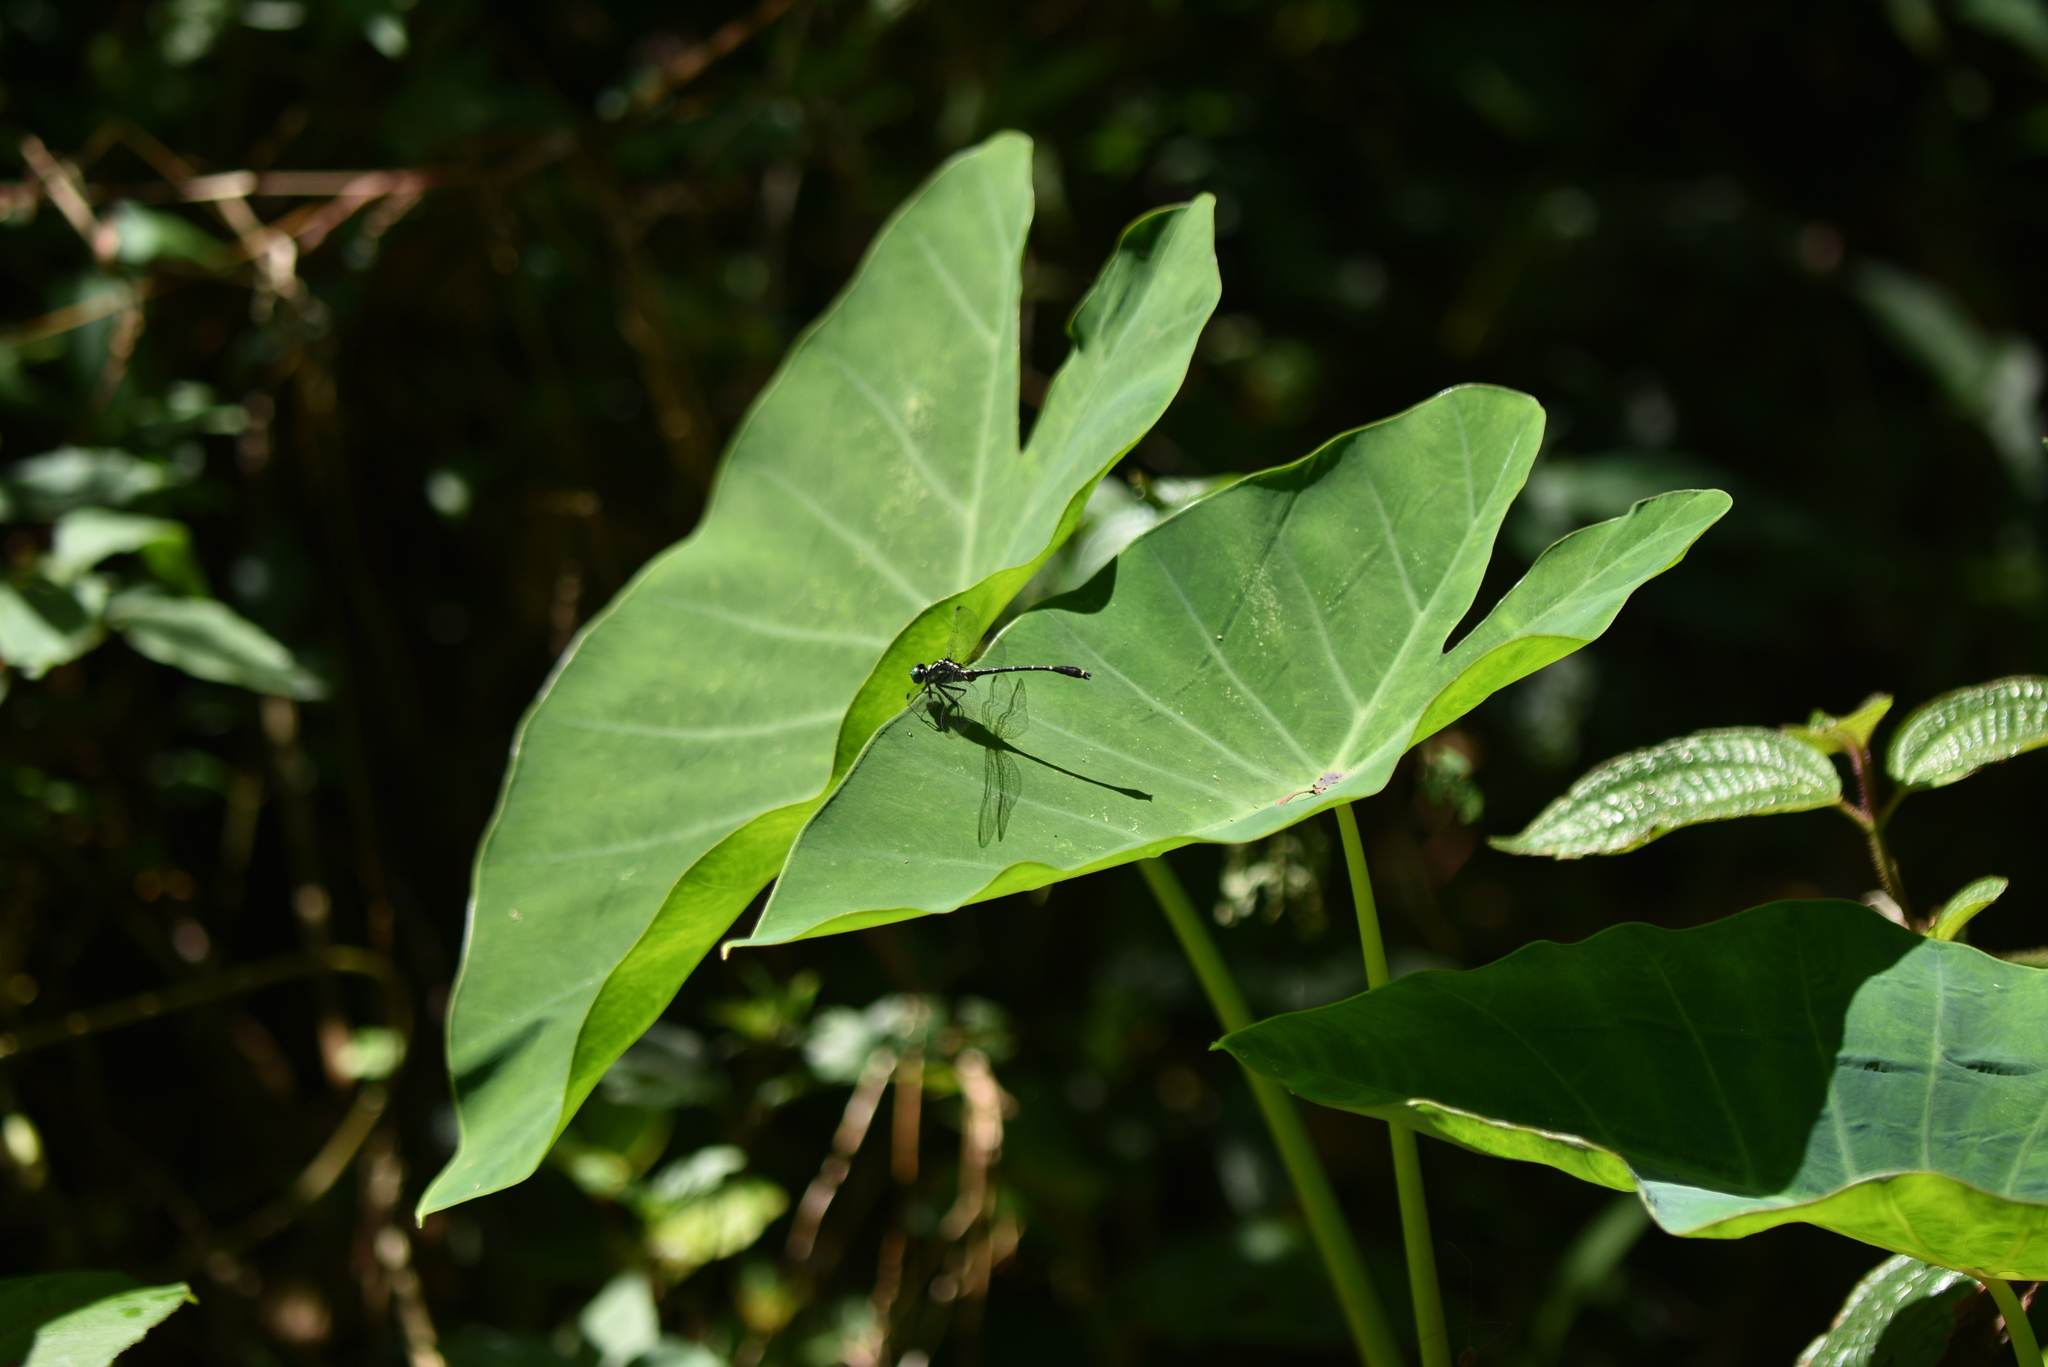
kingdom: Animalia
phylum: Arthropoda
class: Insecta
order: Odonata
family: Gomphidae
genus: Burmagomphus
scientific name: Burmagomphus laidlawi
